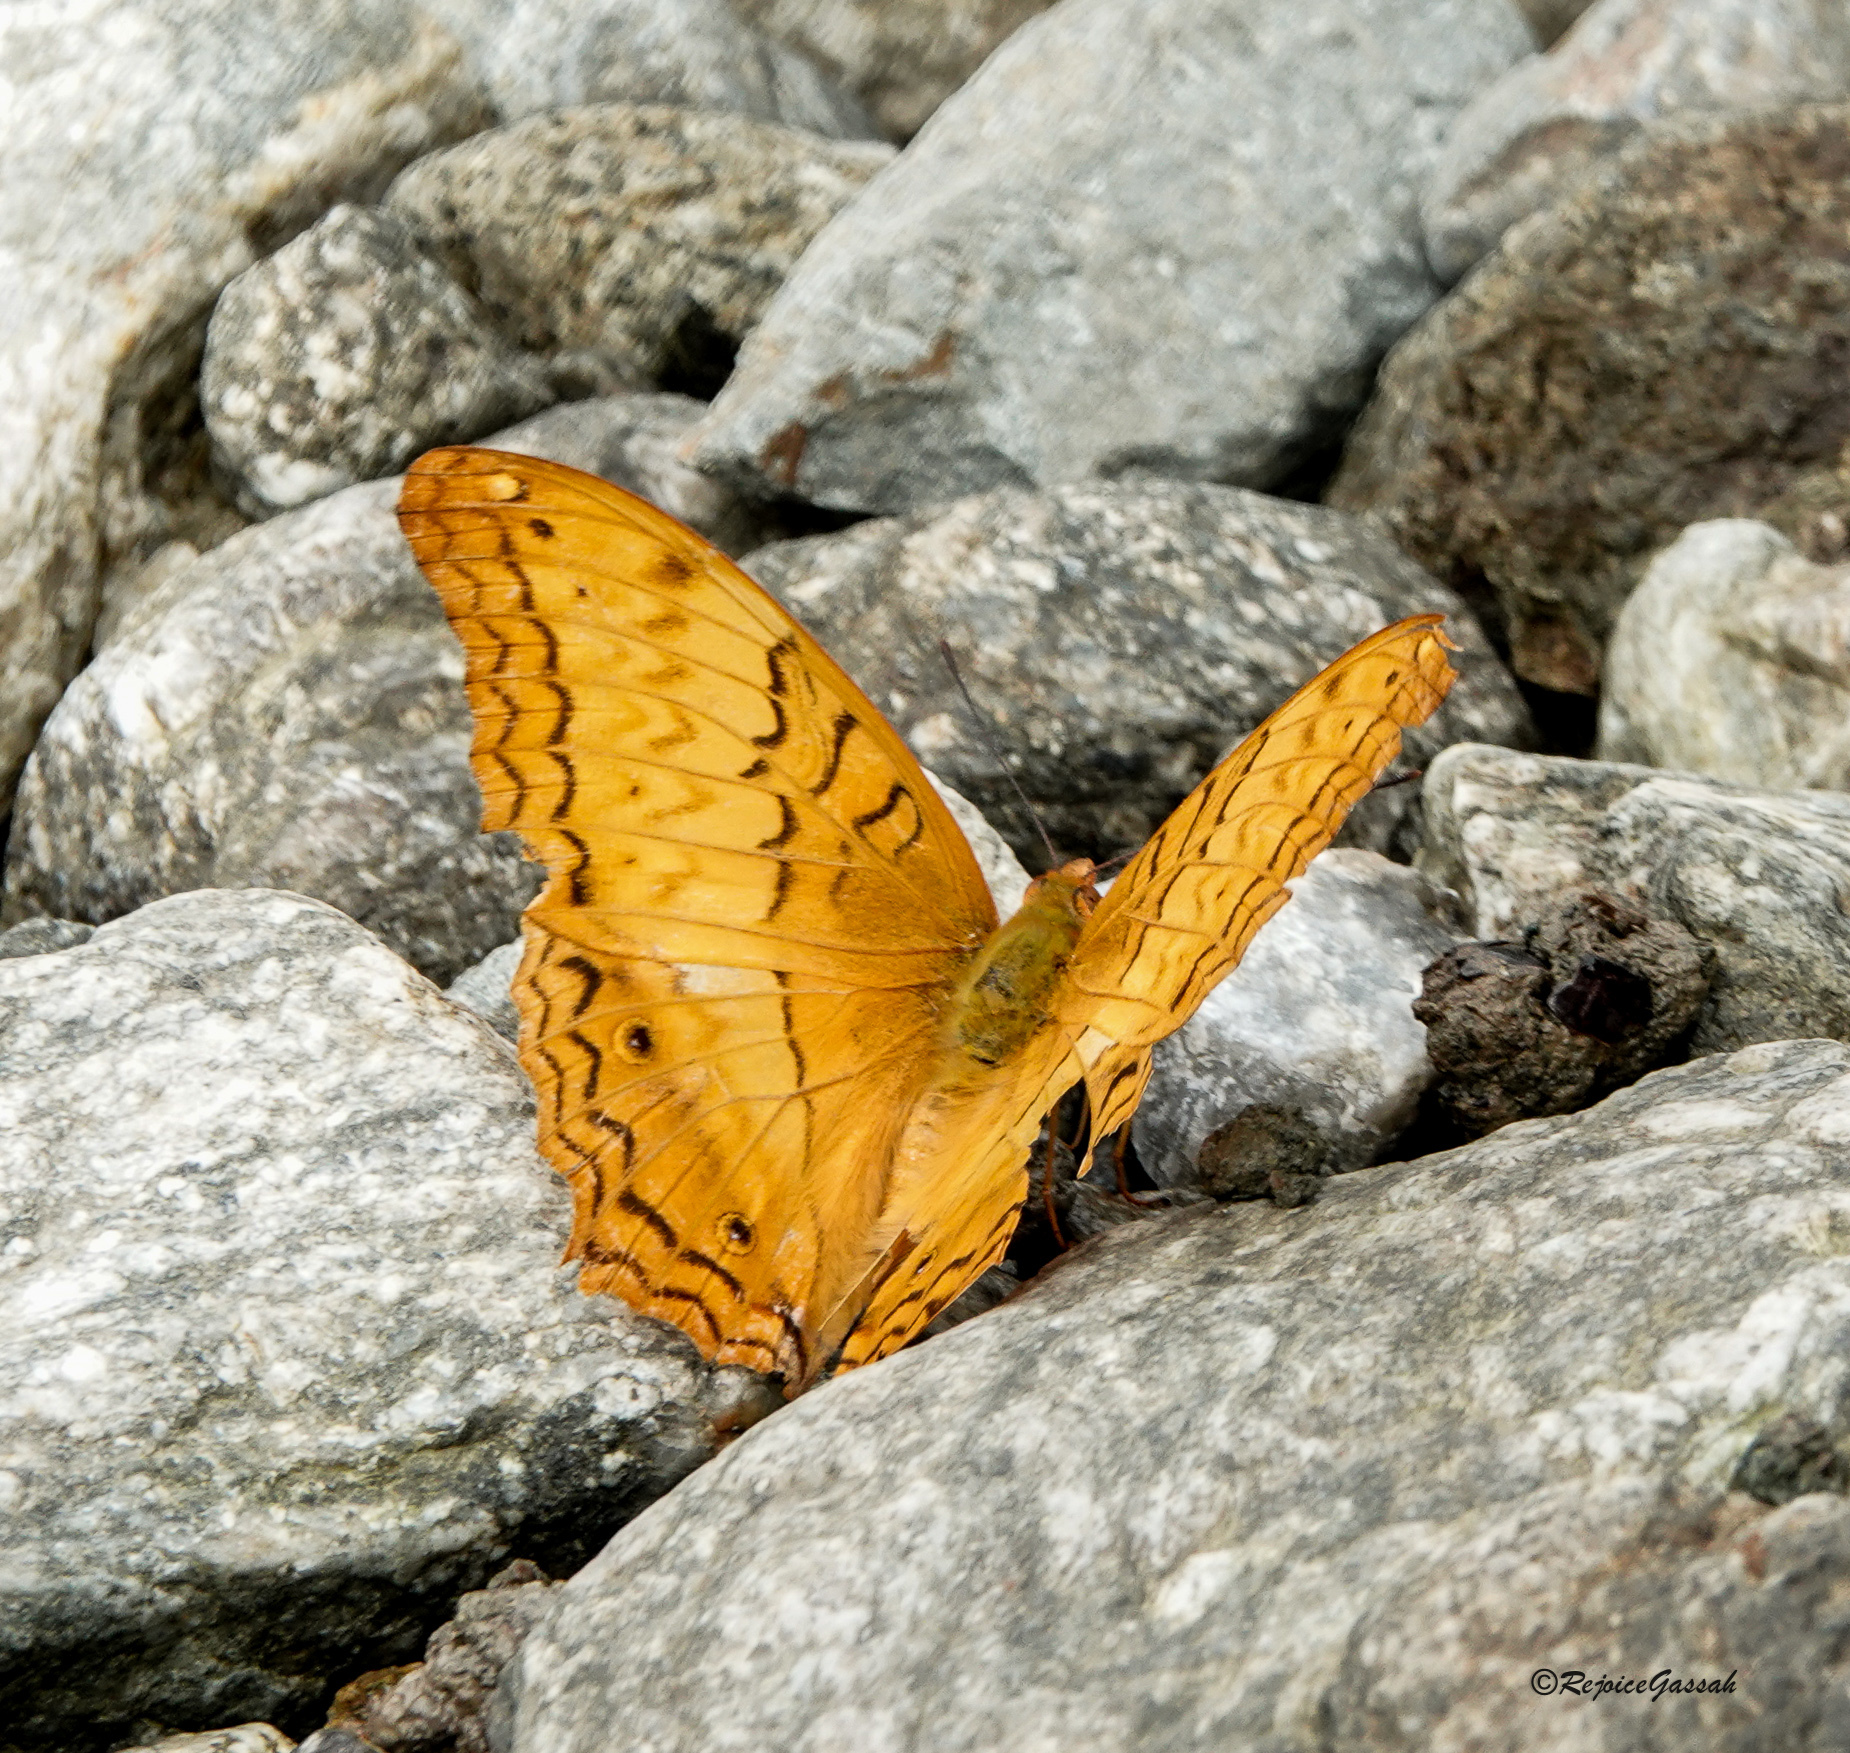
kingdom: Animalia
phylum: Arthropoda
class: Insecta
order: Lepidoptera
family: Nymphalidae
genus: Vindula
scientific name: Vindula erota
